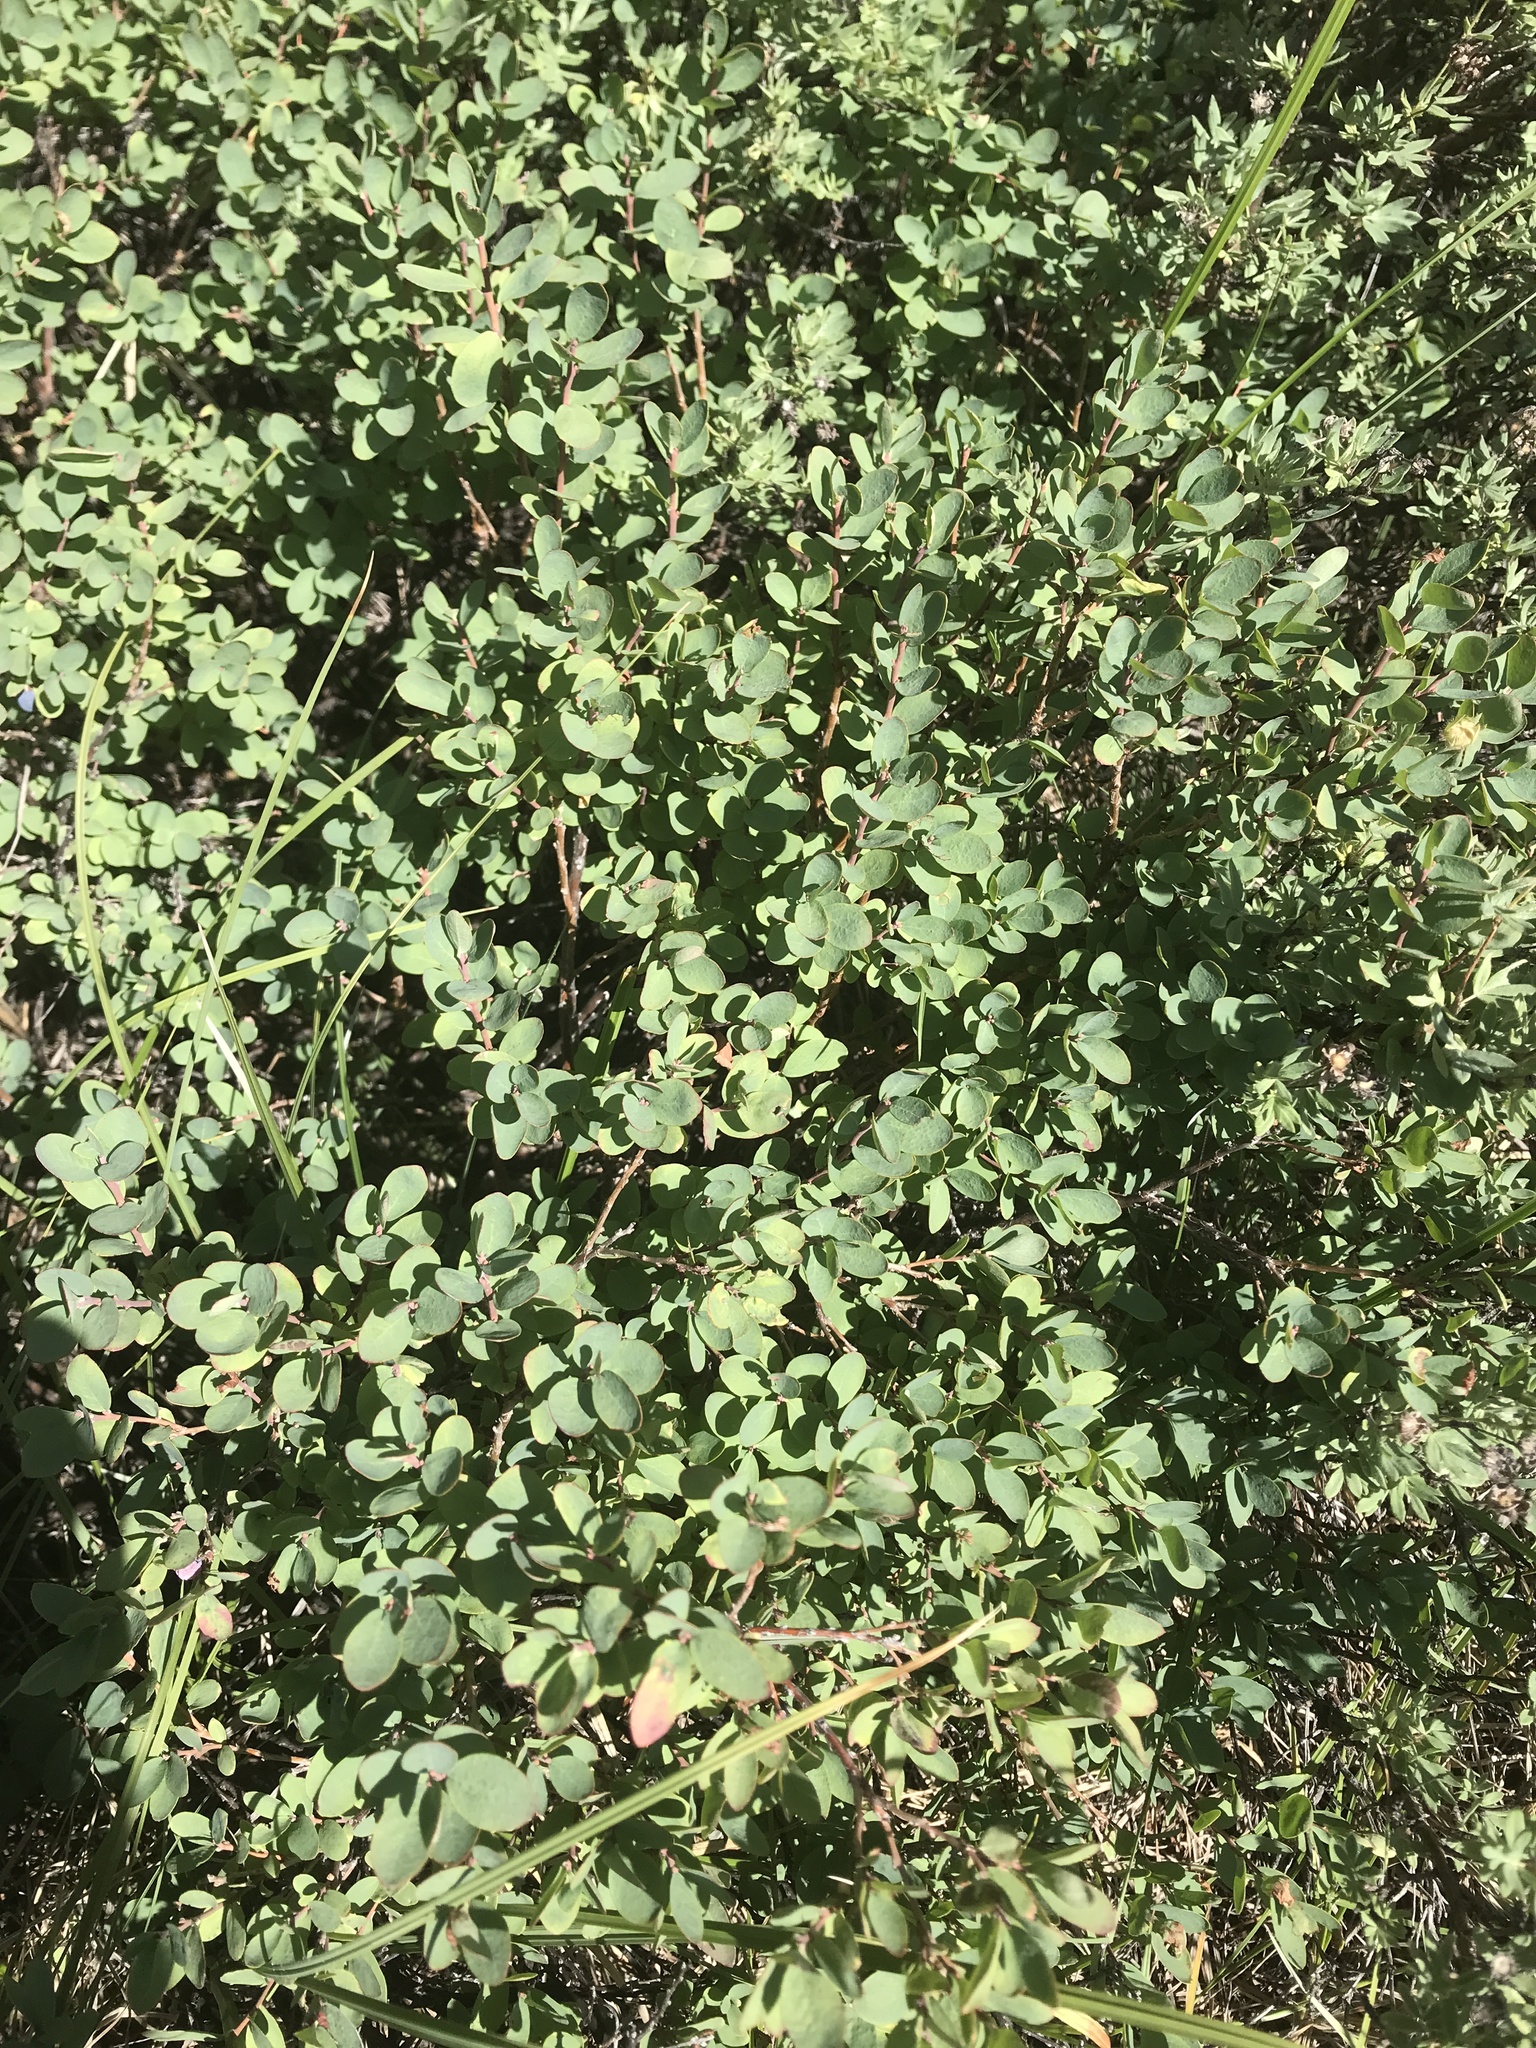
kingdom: Plantae
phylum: Tracheophyta
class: Magnoliopsida
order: Ericales
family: Ericaceae
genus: Vaccinium
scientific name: Vaccinium uliginosum
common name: Bog bilberry
